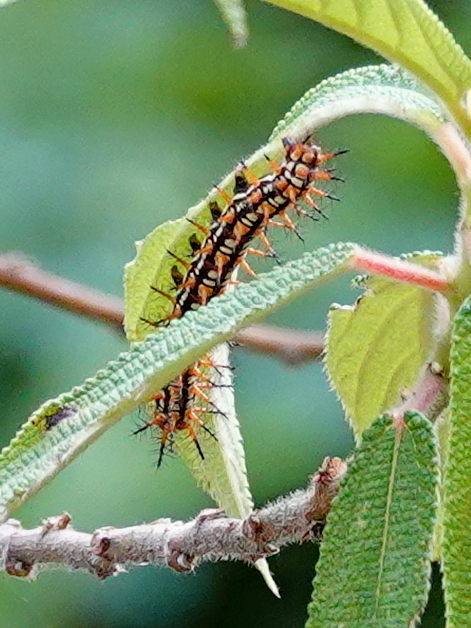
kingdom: Animalia
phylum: Arthropoda
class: Insecta
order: Lepidoptera
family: Nymphalidae
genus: Acraea
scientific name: Acraea Telchinia issoria
